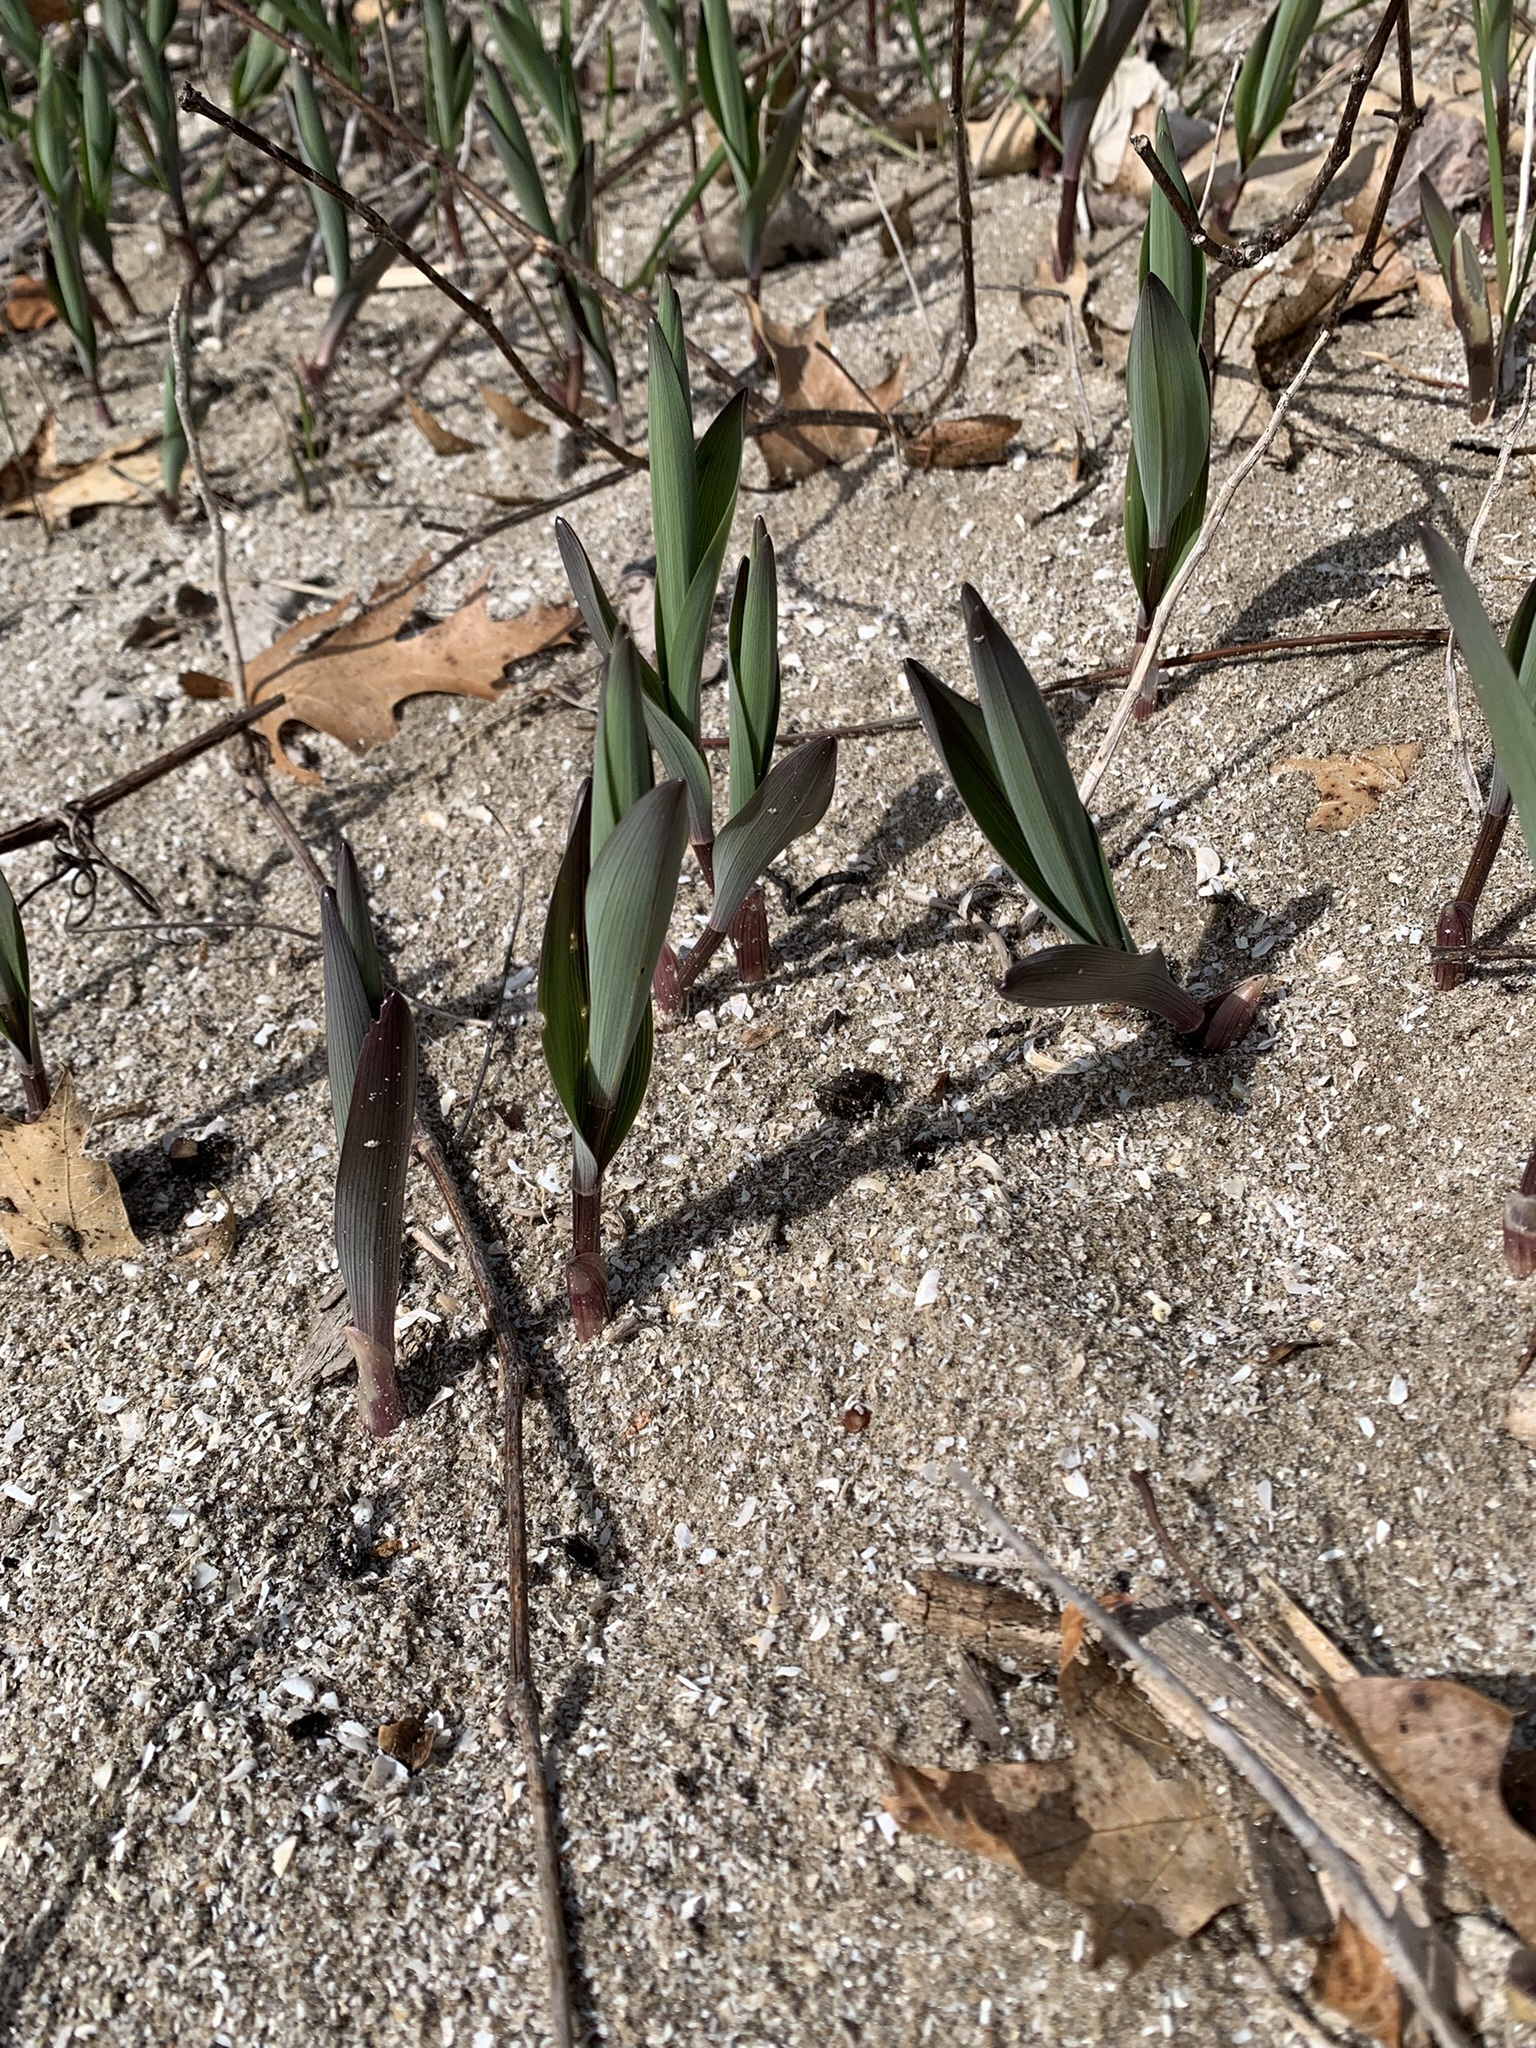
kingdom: Plantae
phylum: Tracheophyta
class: Liliopsida
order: Asparagales
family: Asparagaceae
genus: Maianthemum
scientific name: Maianthemum stellatum
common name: Little false solomon's seal
